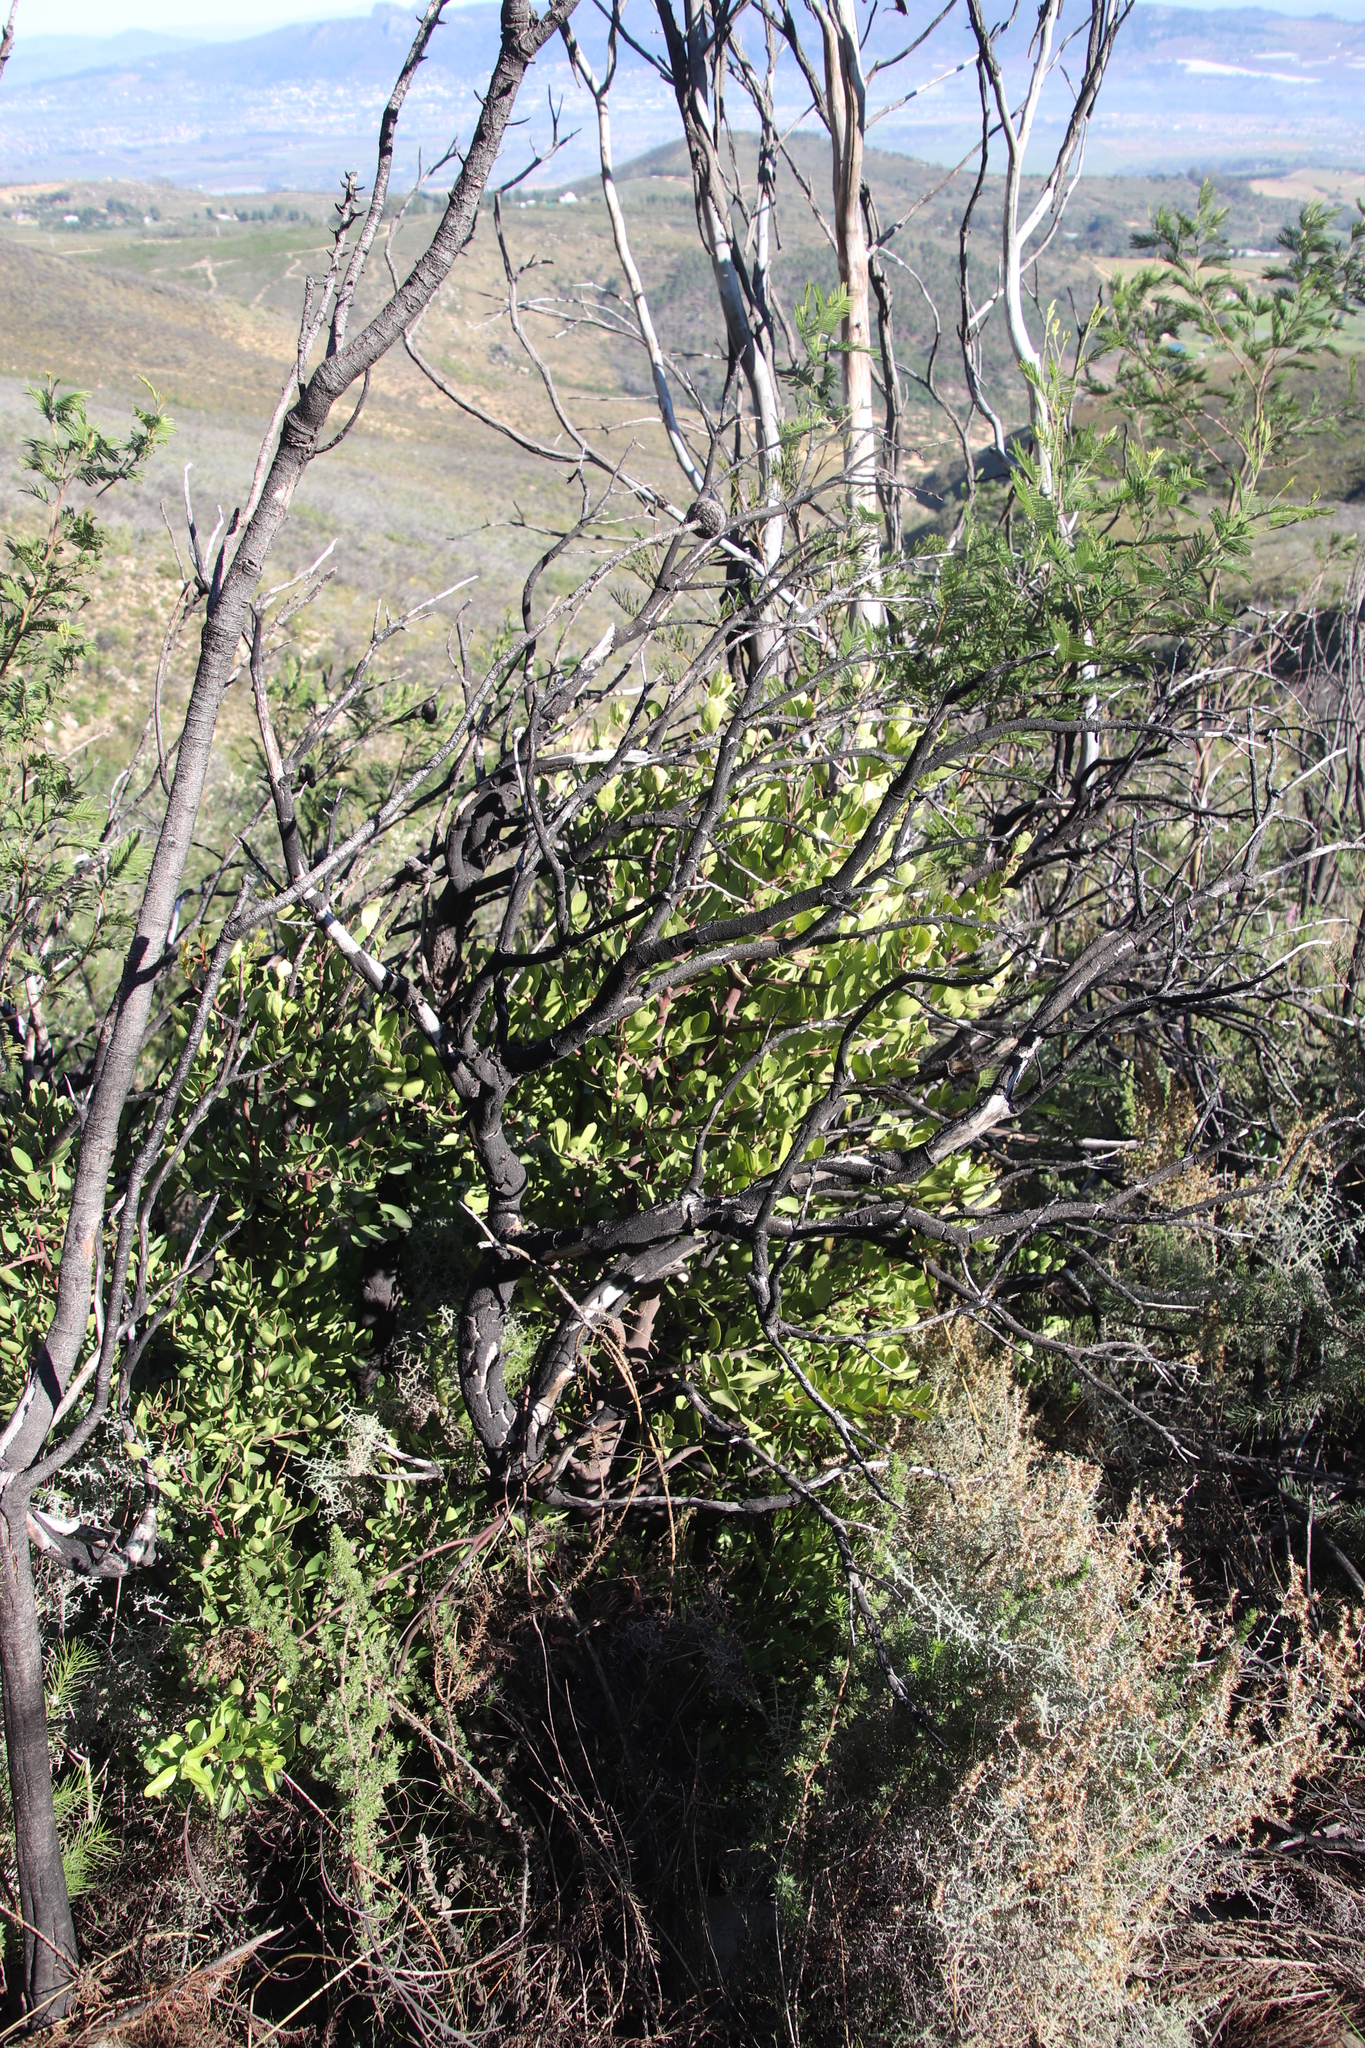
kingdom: Plantae
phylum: Tracheophyta
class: Magnoliopsida
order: Celastrales
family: Celastraceae
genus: Gymnosporia
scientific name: Gymnosporia laurina
